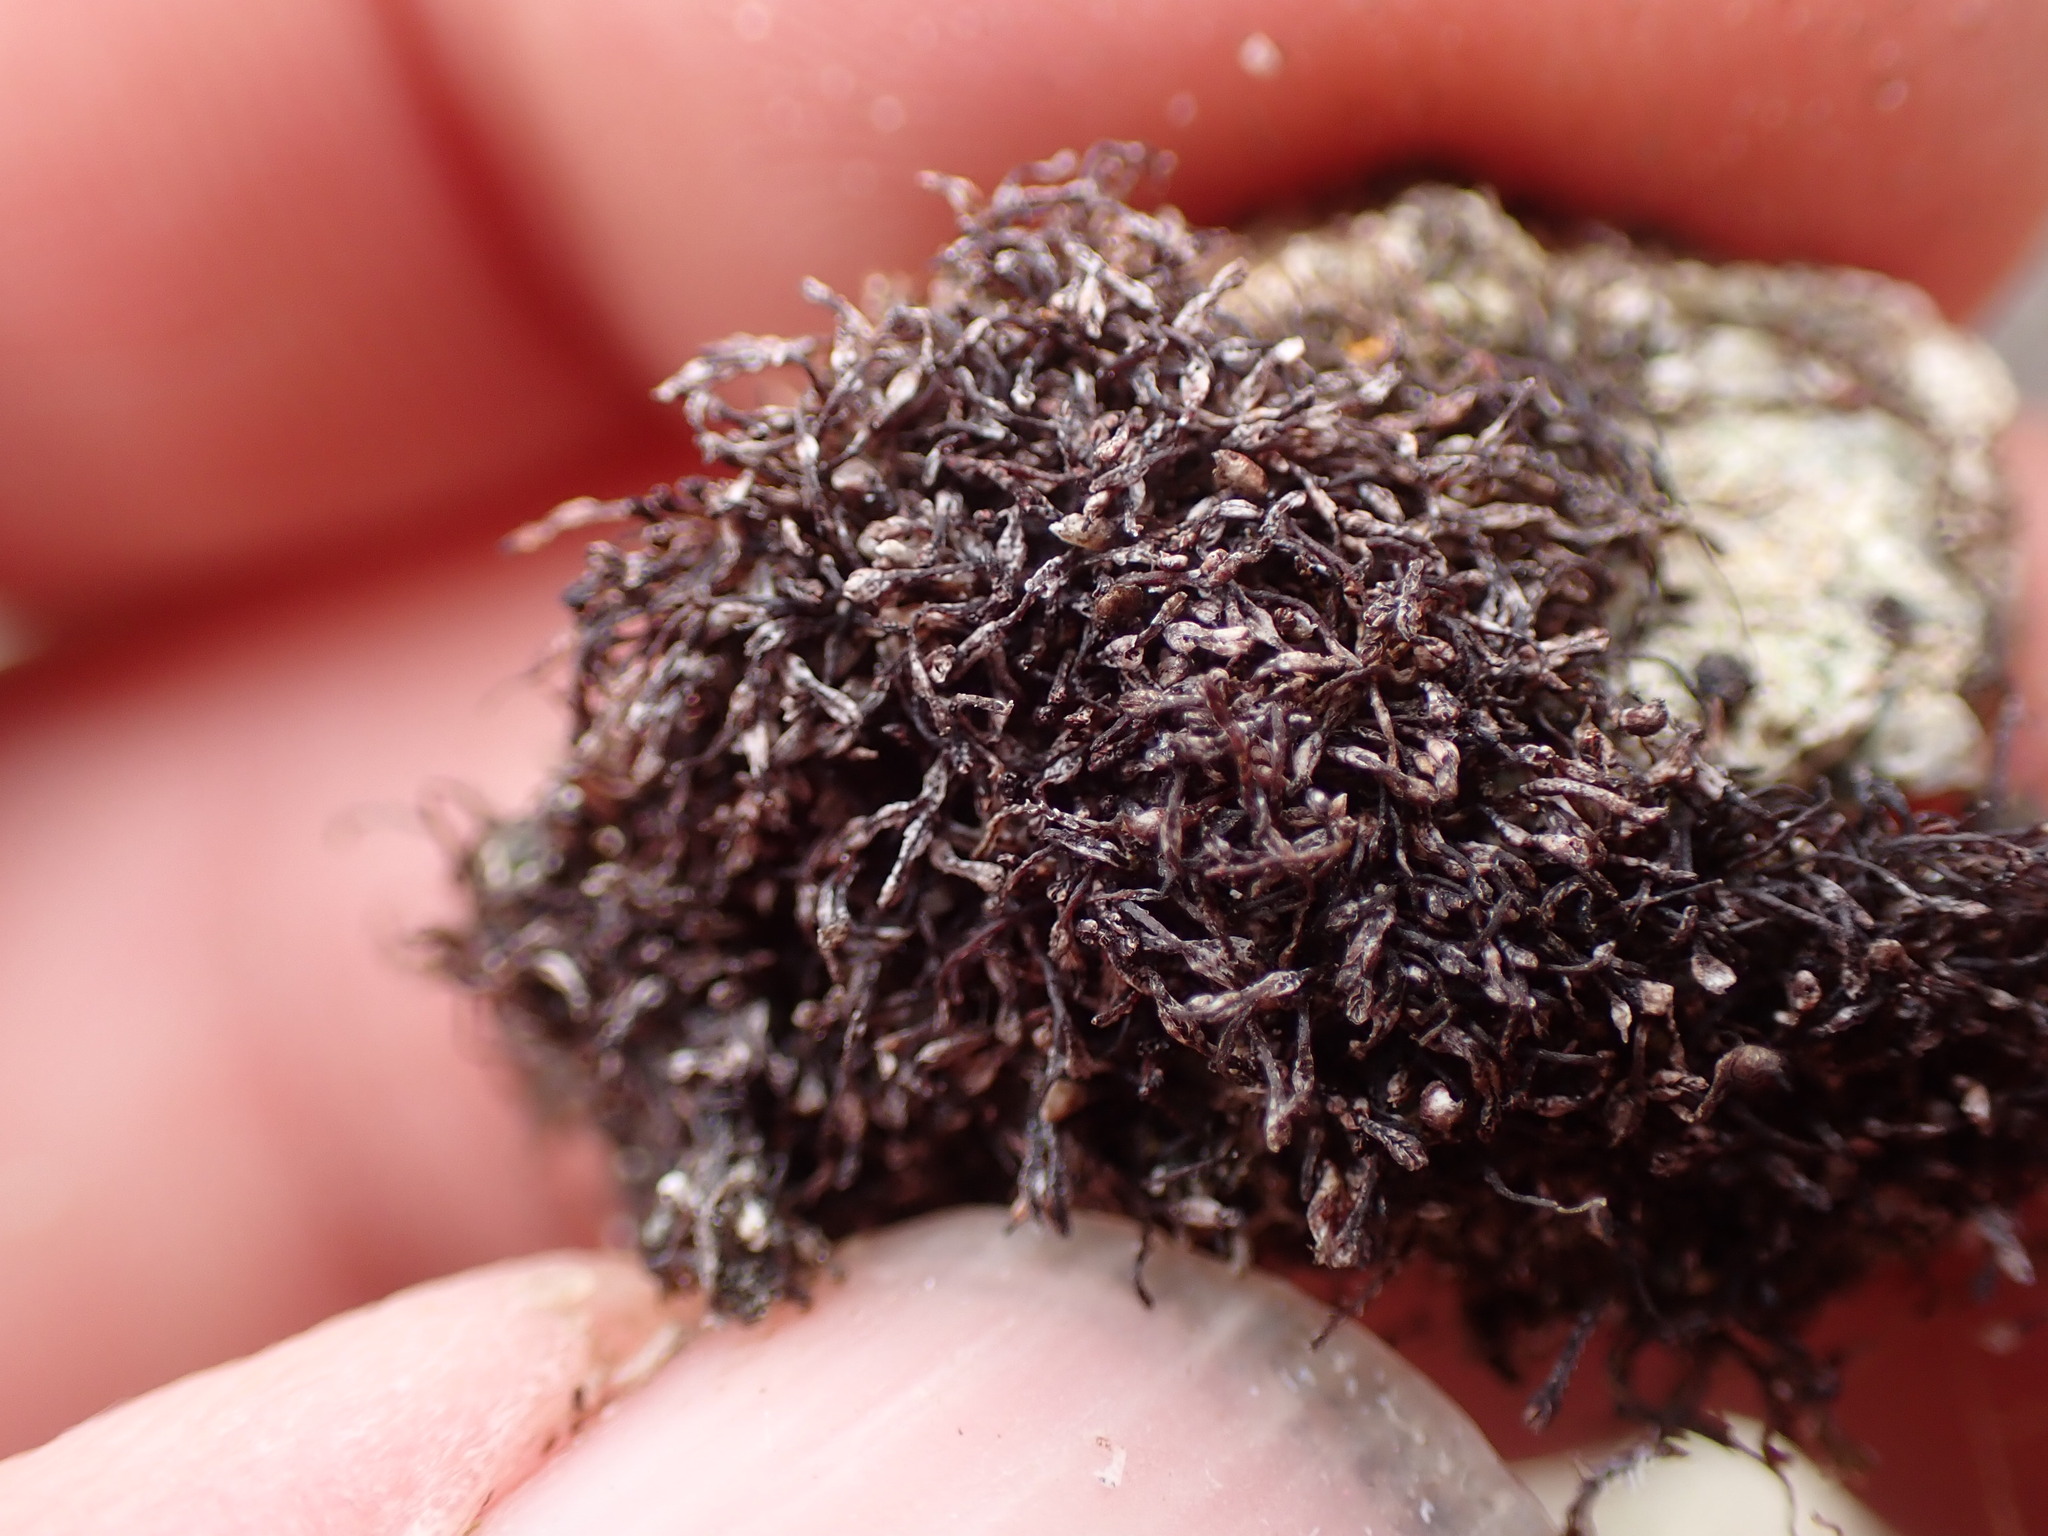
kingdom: Plantae
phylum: Marchantiophyta
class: Jungermanniopsida
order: Jungermanniales
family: Gymnomitriaceae
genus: Marsupella
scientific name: Marsupella stableri
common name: Stabler's rustwort
